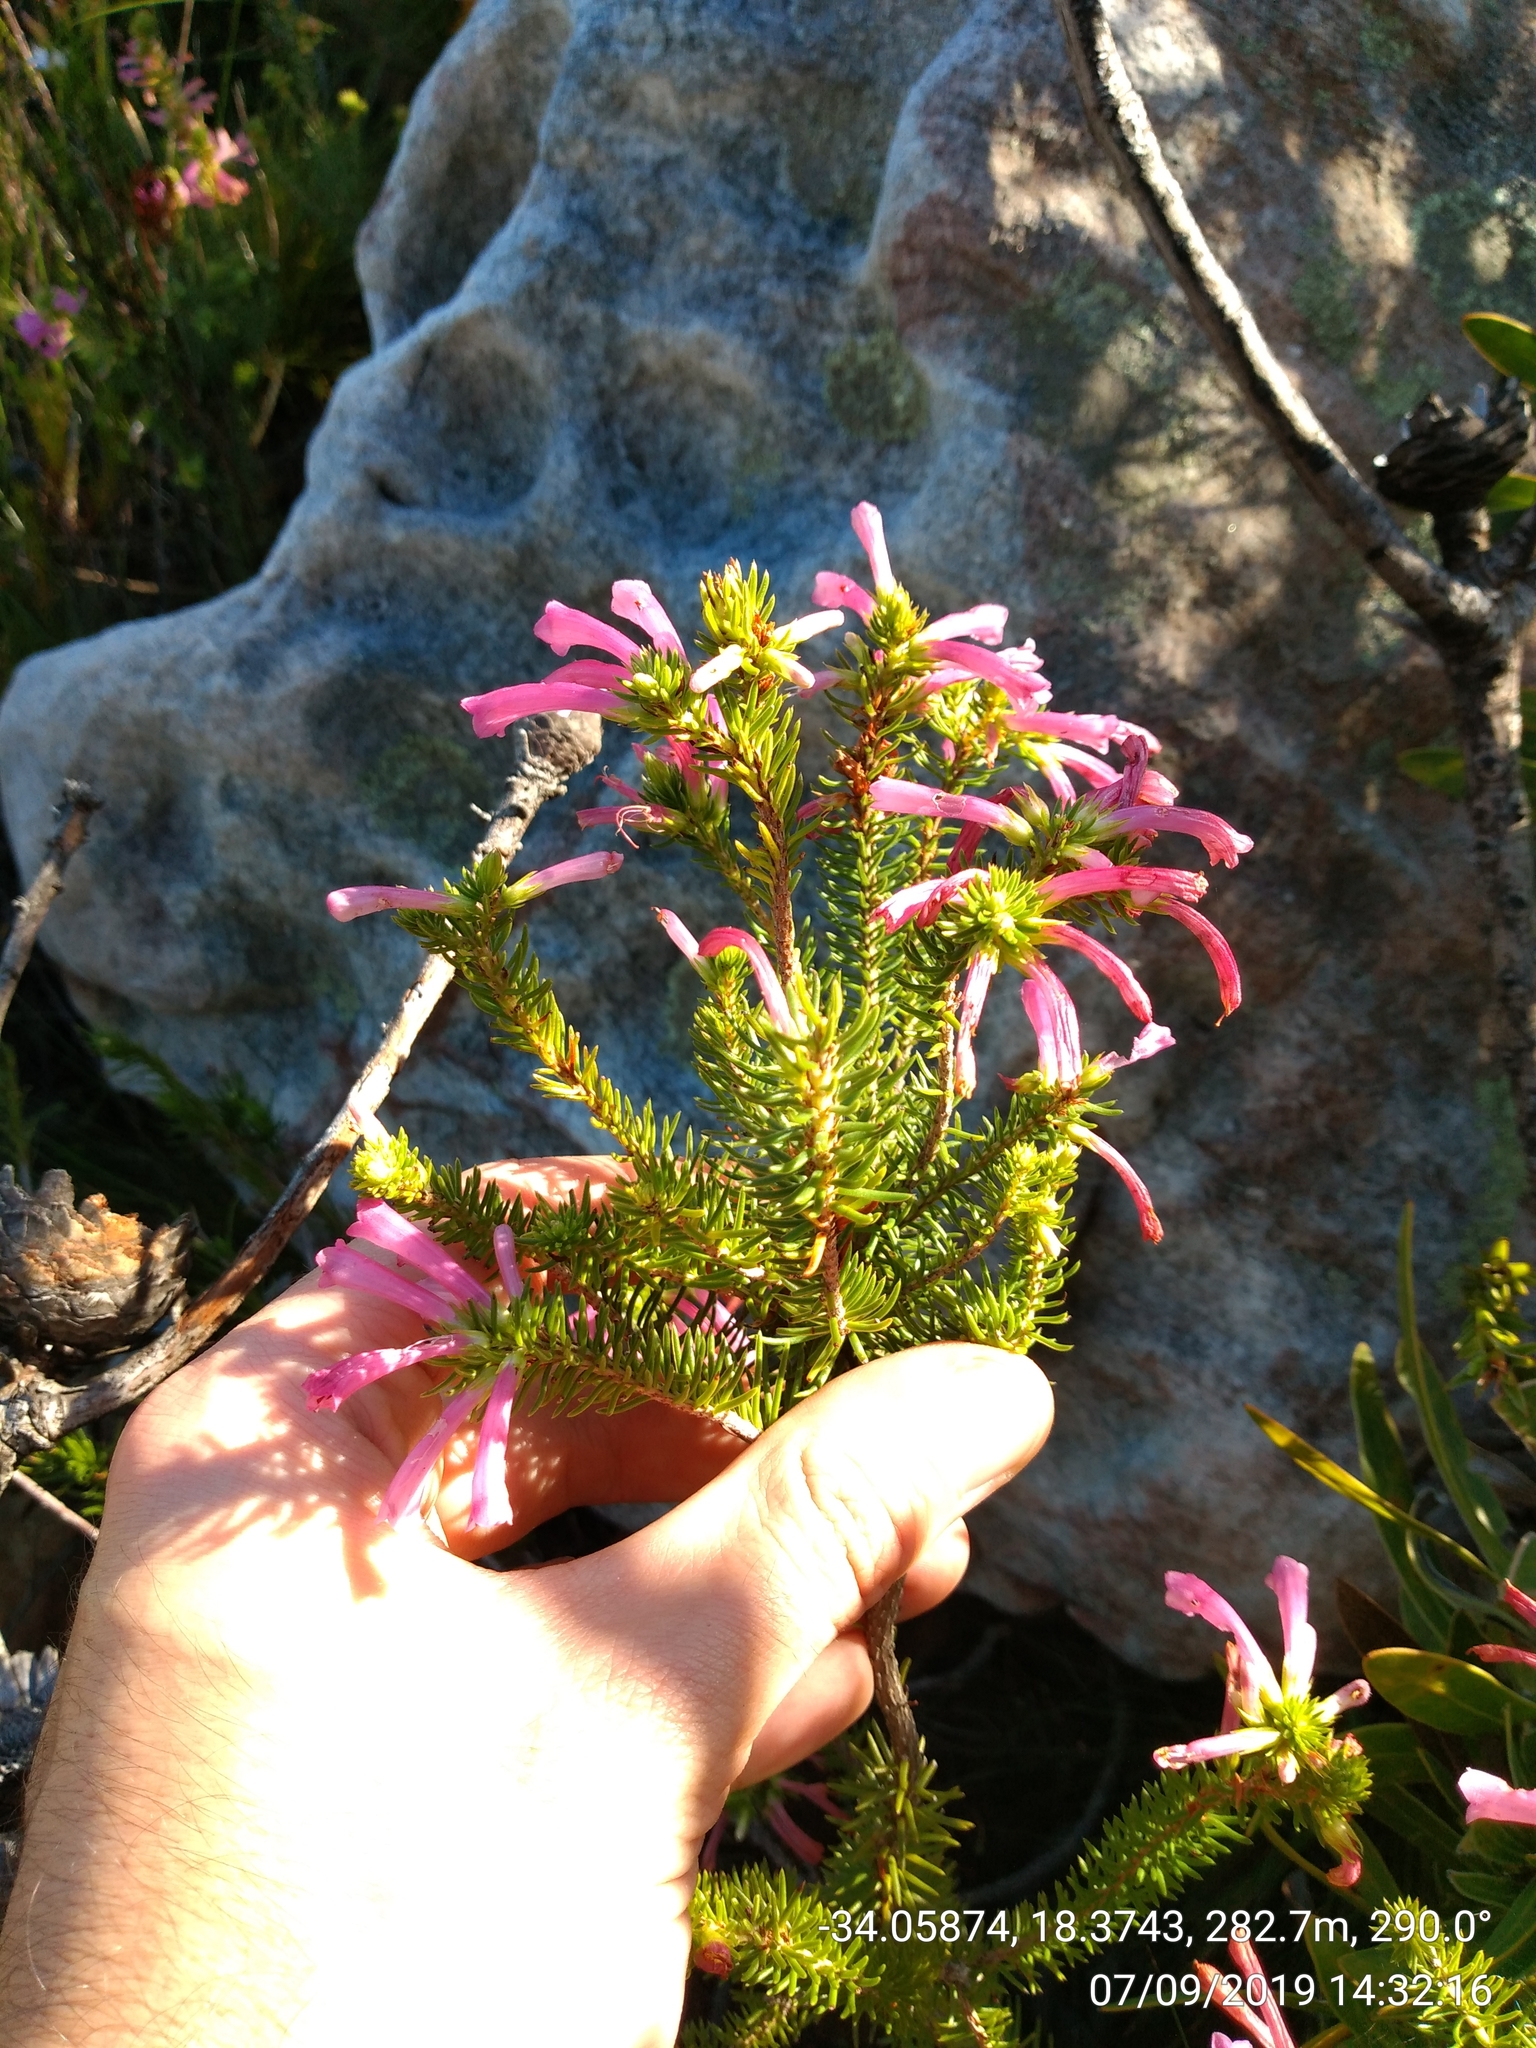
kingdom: Plantae
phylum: Tracheophyta
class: Magnoliopsida
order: Ericales
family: Ericaceae
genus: Erica
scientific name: Erica abietina
